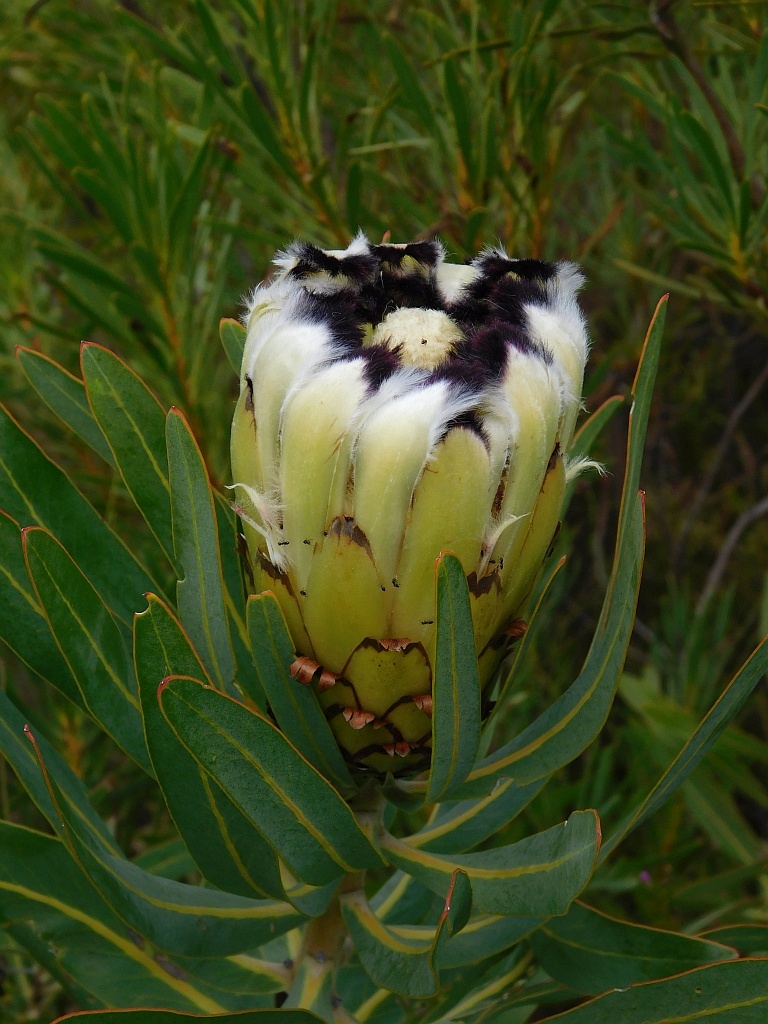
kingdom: Plantae
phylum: Tracheophyta
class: Magnoliopsida
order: Proteales
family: Proteaceae
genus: Protea
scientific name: Protea neriifolia
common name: Blue sugarbush
